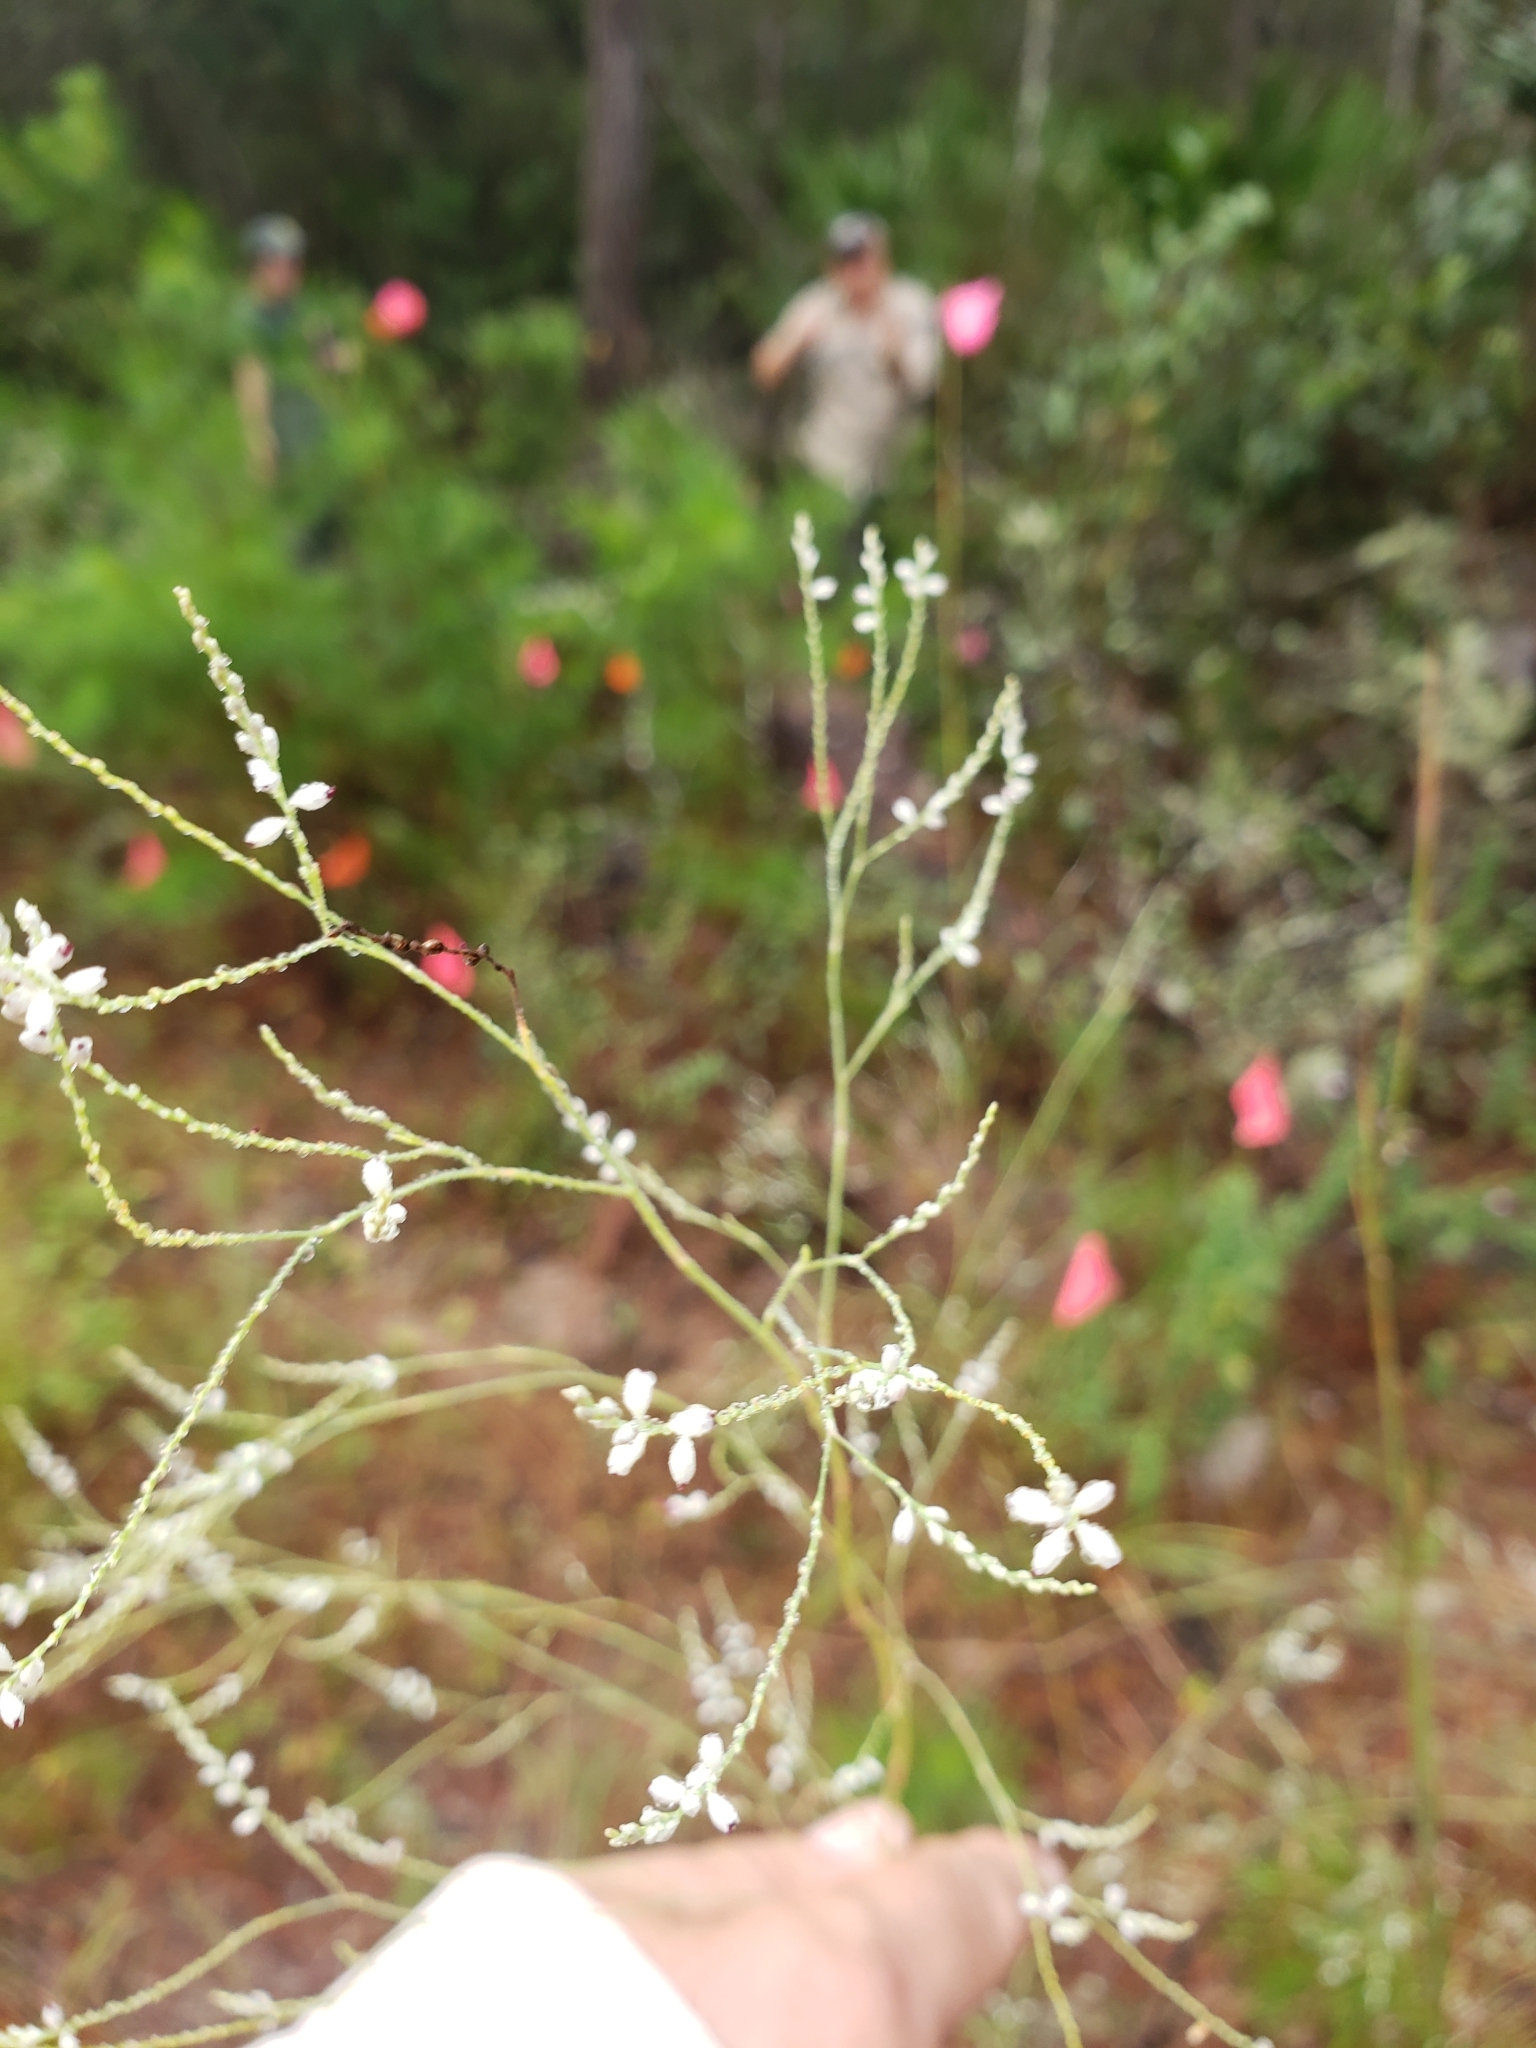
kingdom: Plantae
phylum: Tracheophyta
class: Magnoliopsida
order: Caryophyllales
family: Polygonaceae
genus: Polygonella
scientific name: Polygonella gracilis
